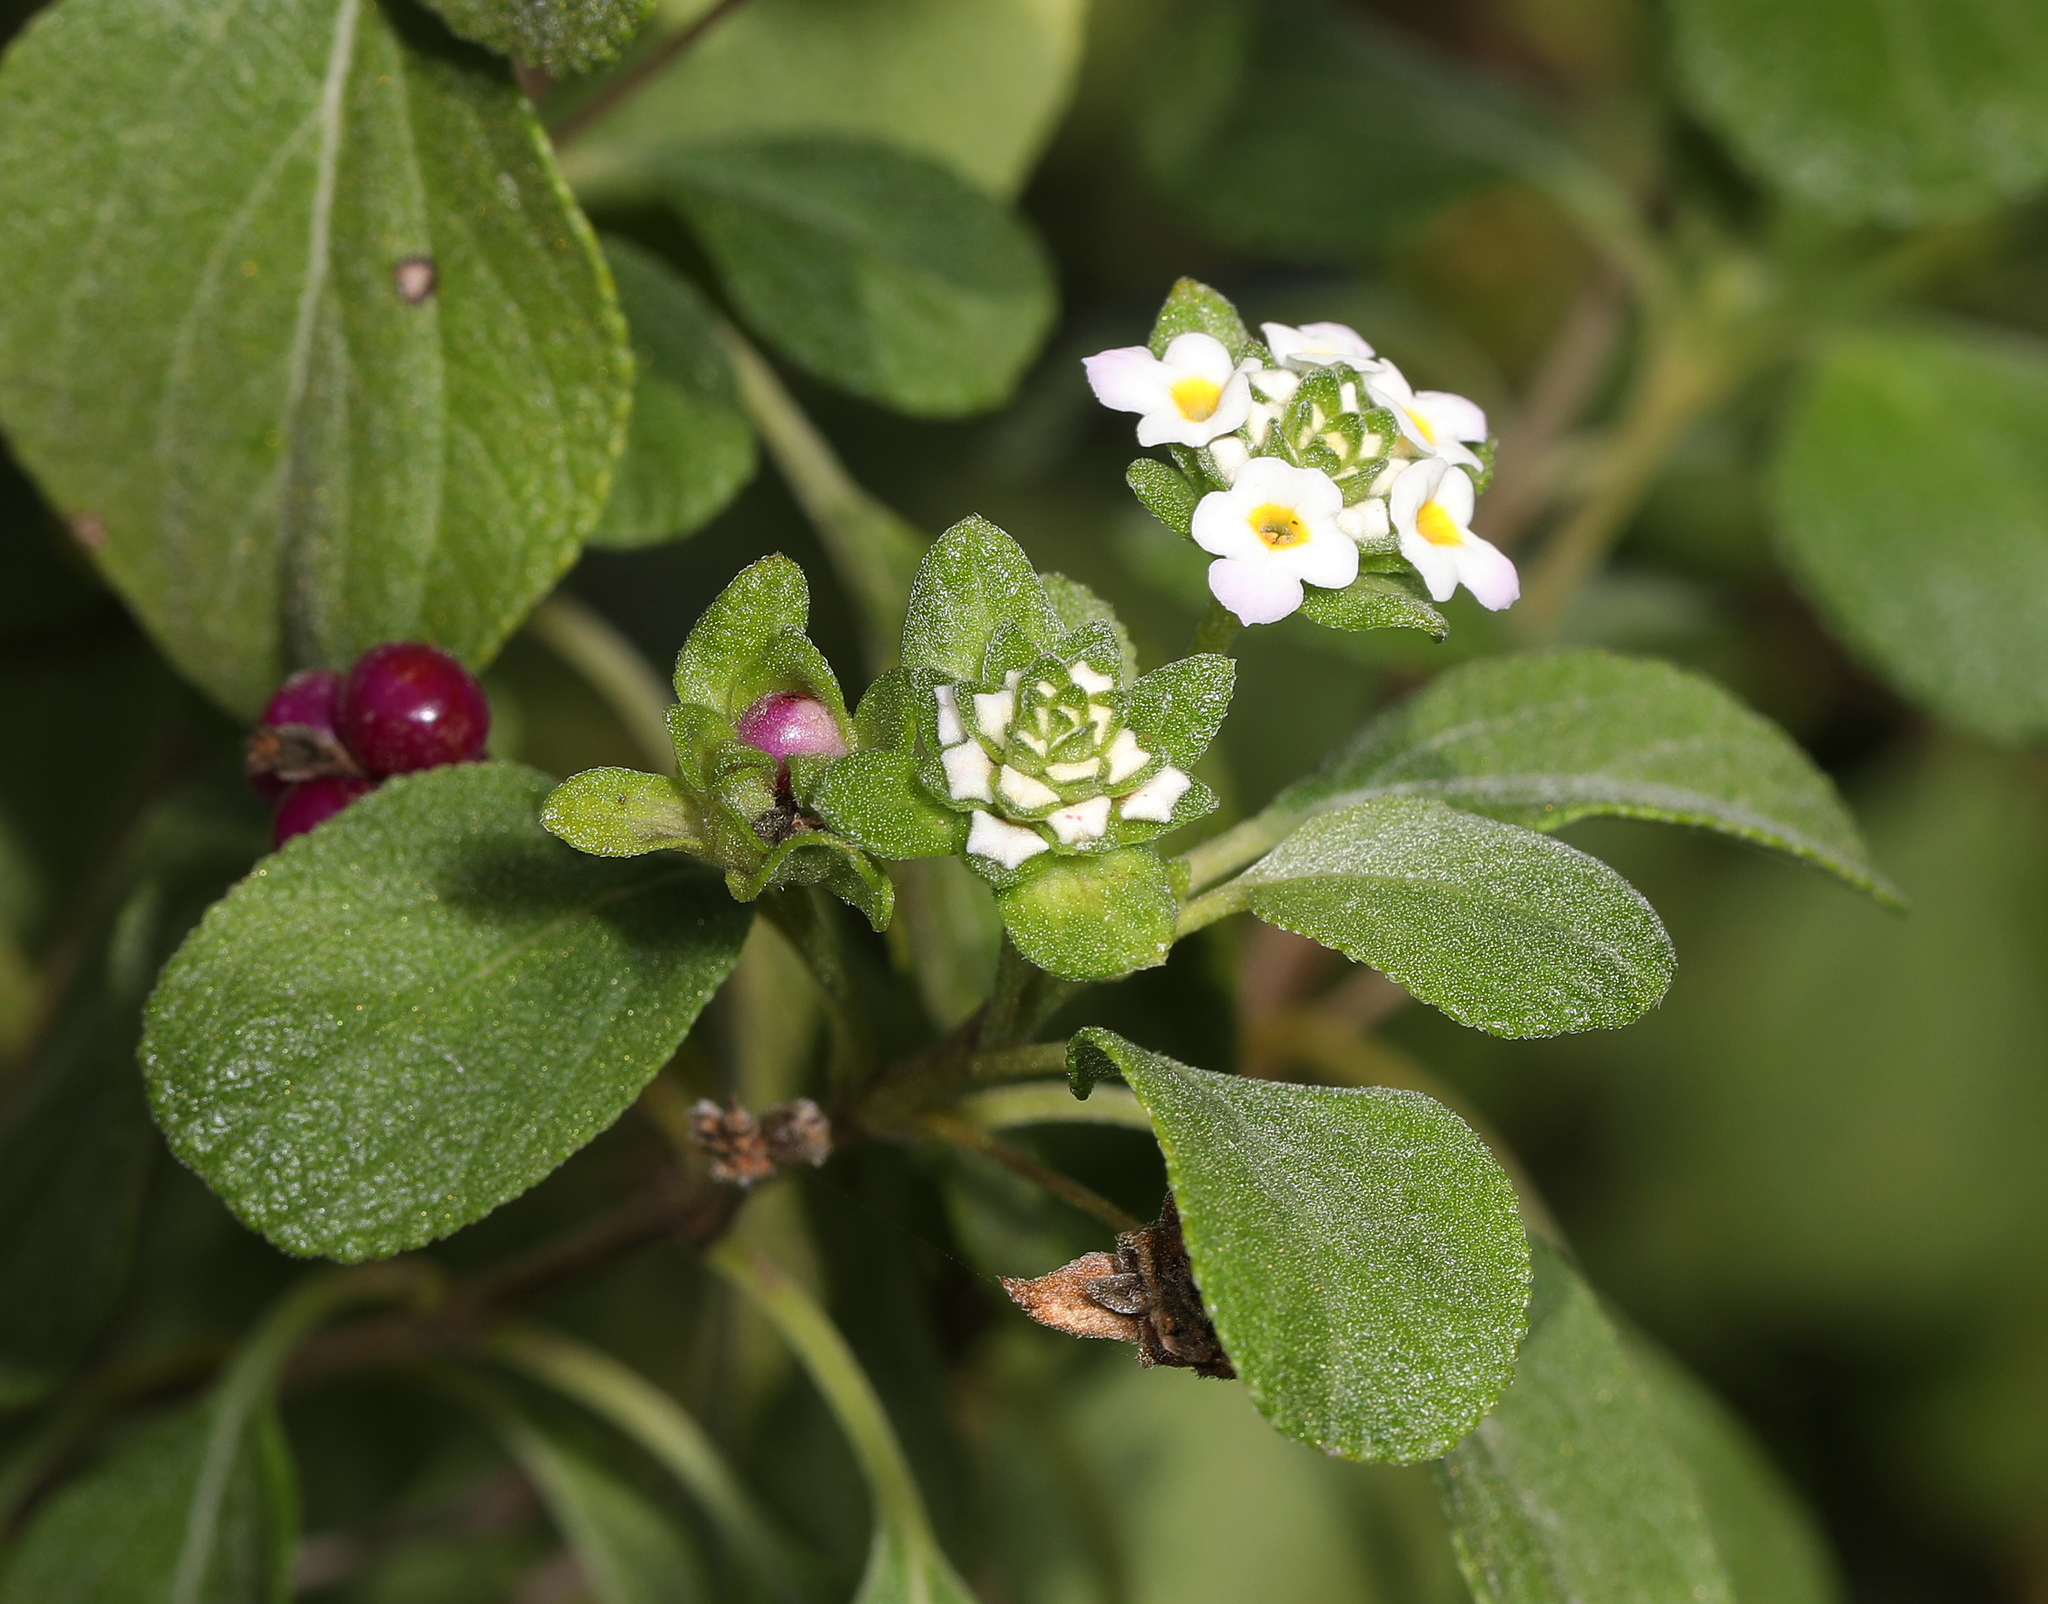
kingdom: Plantae
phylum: Tracheophyta
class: Magnoliopsida
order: Lamiales
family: Verbenaceae
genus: Lantana
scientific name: Lantana involucrata
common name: Black sage
